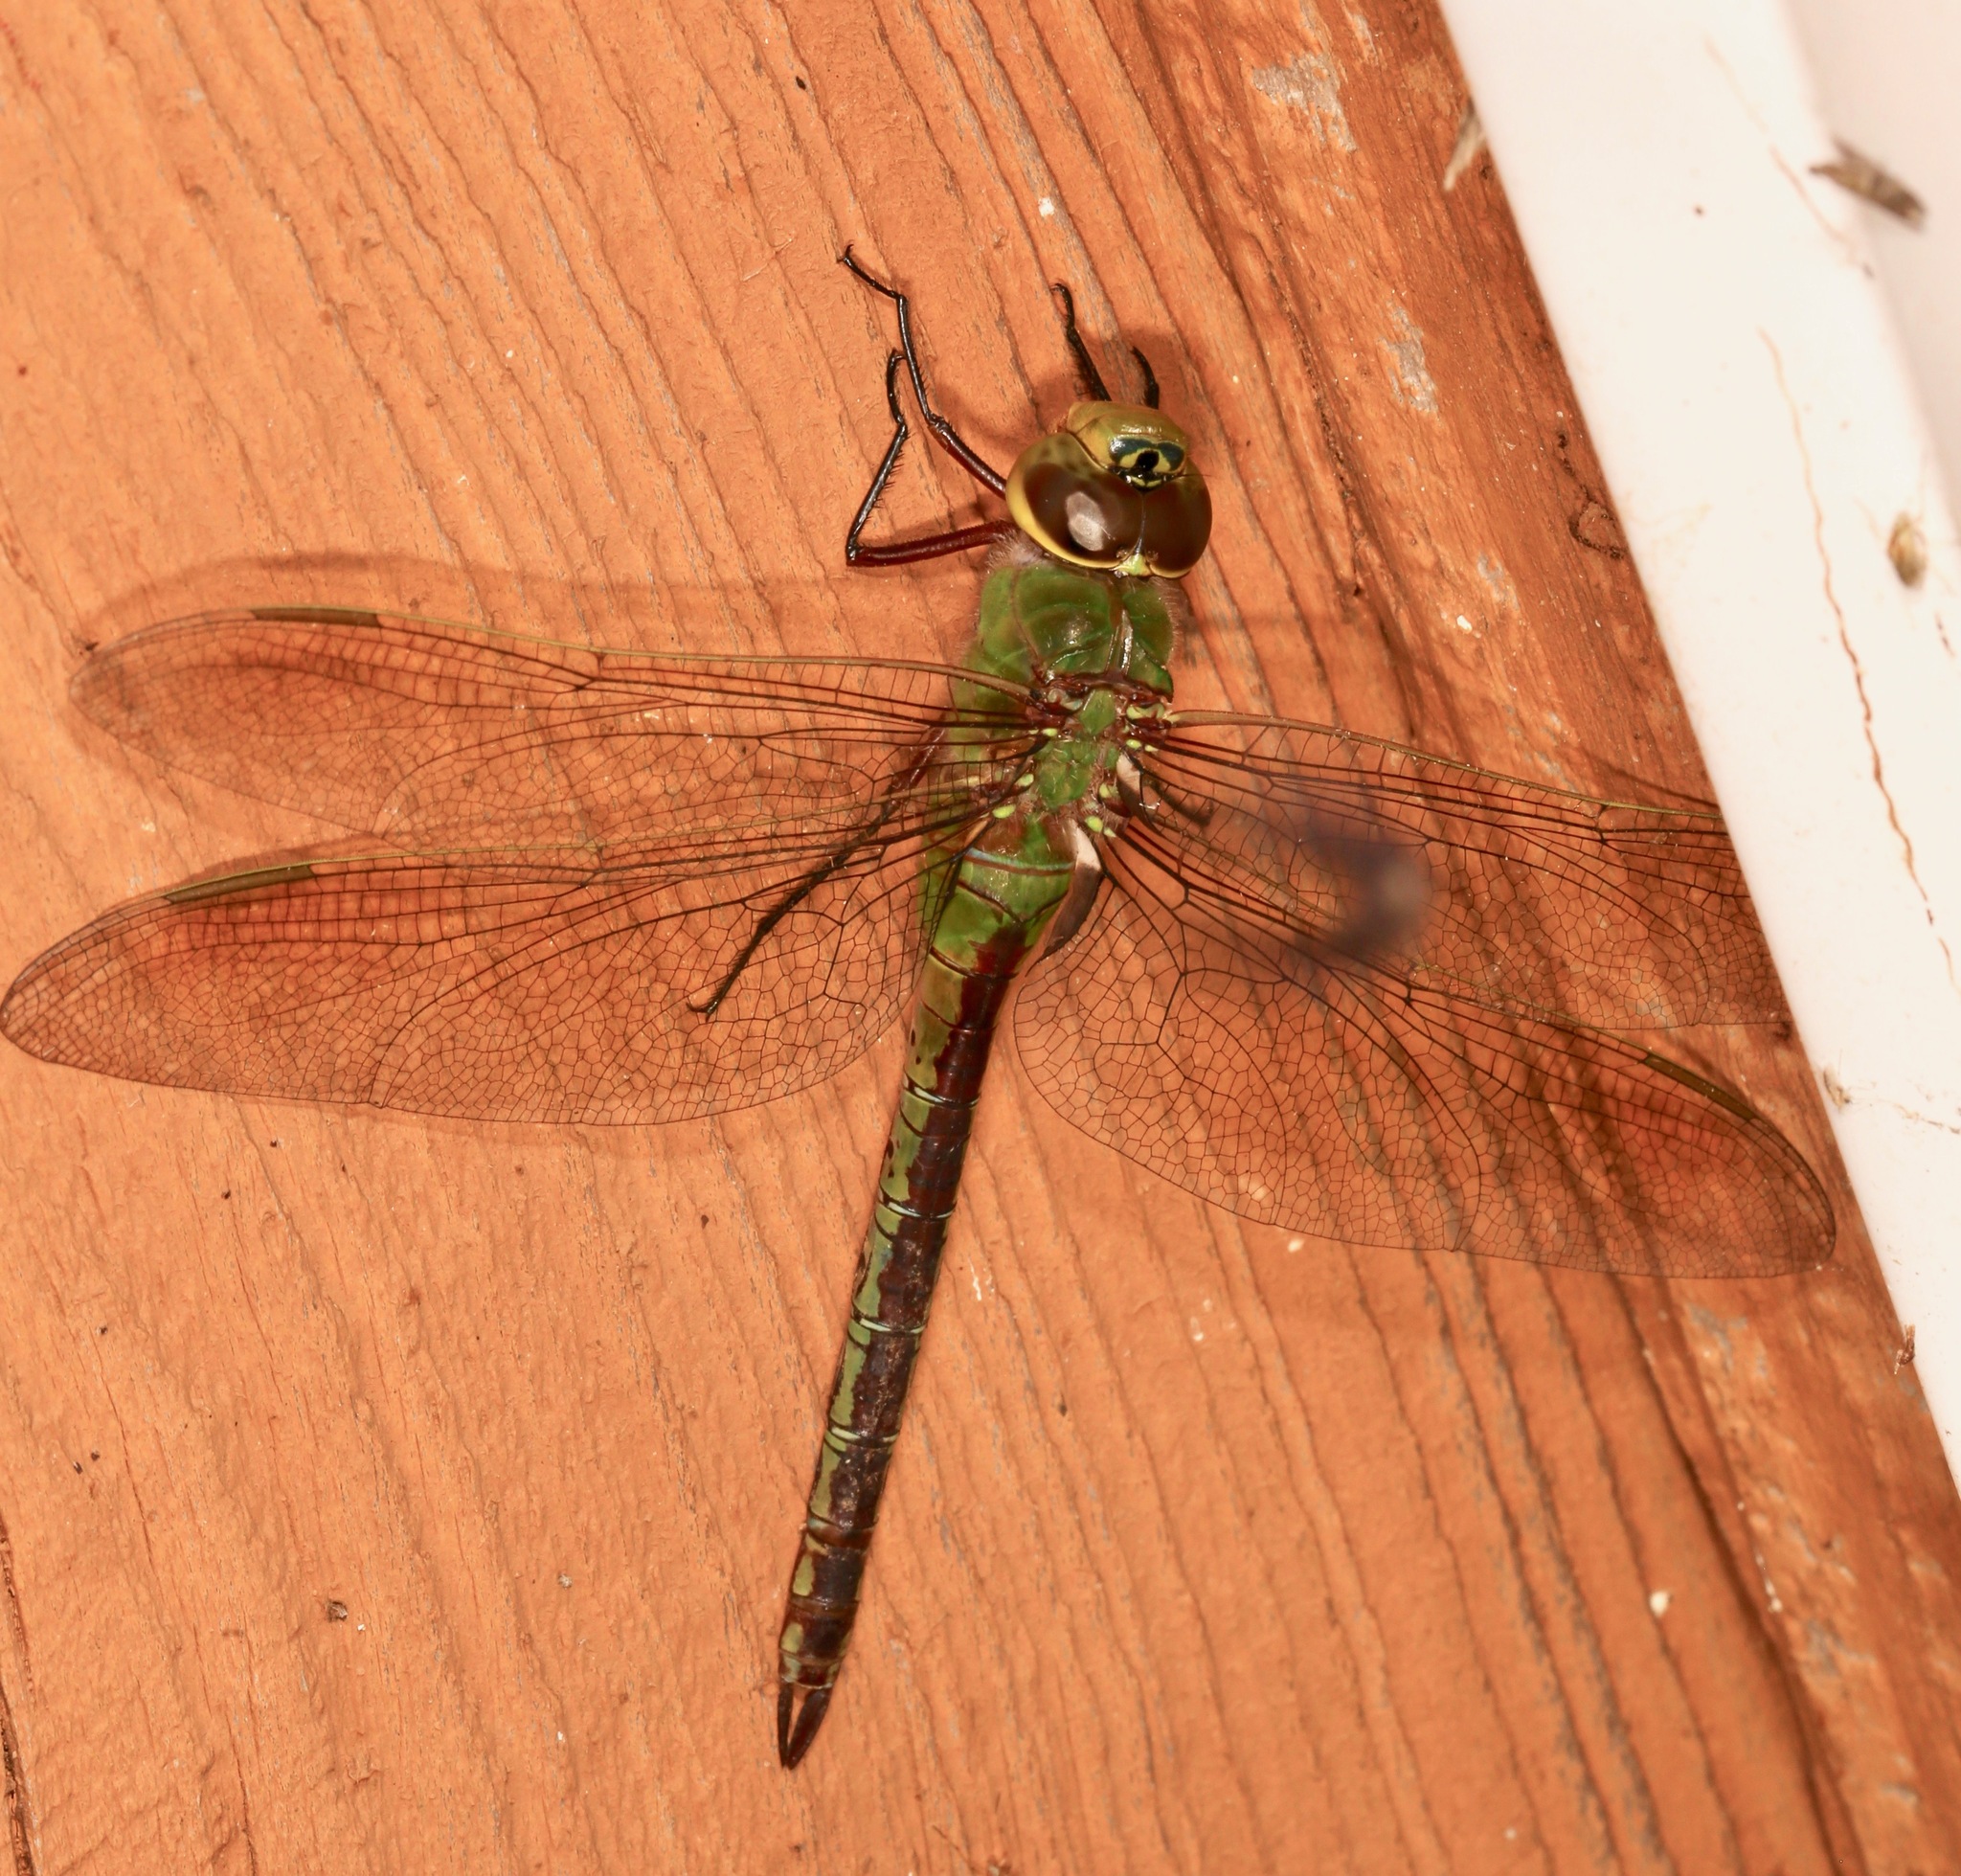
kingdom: Animalia
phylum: Arthropoda
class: Insecta
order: Odonata
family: Aeshnidae
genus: Anax
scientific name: Anax junius
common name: Common green darner
